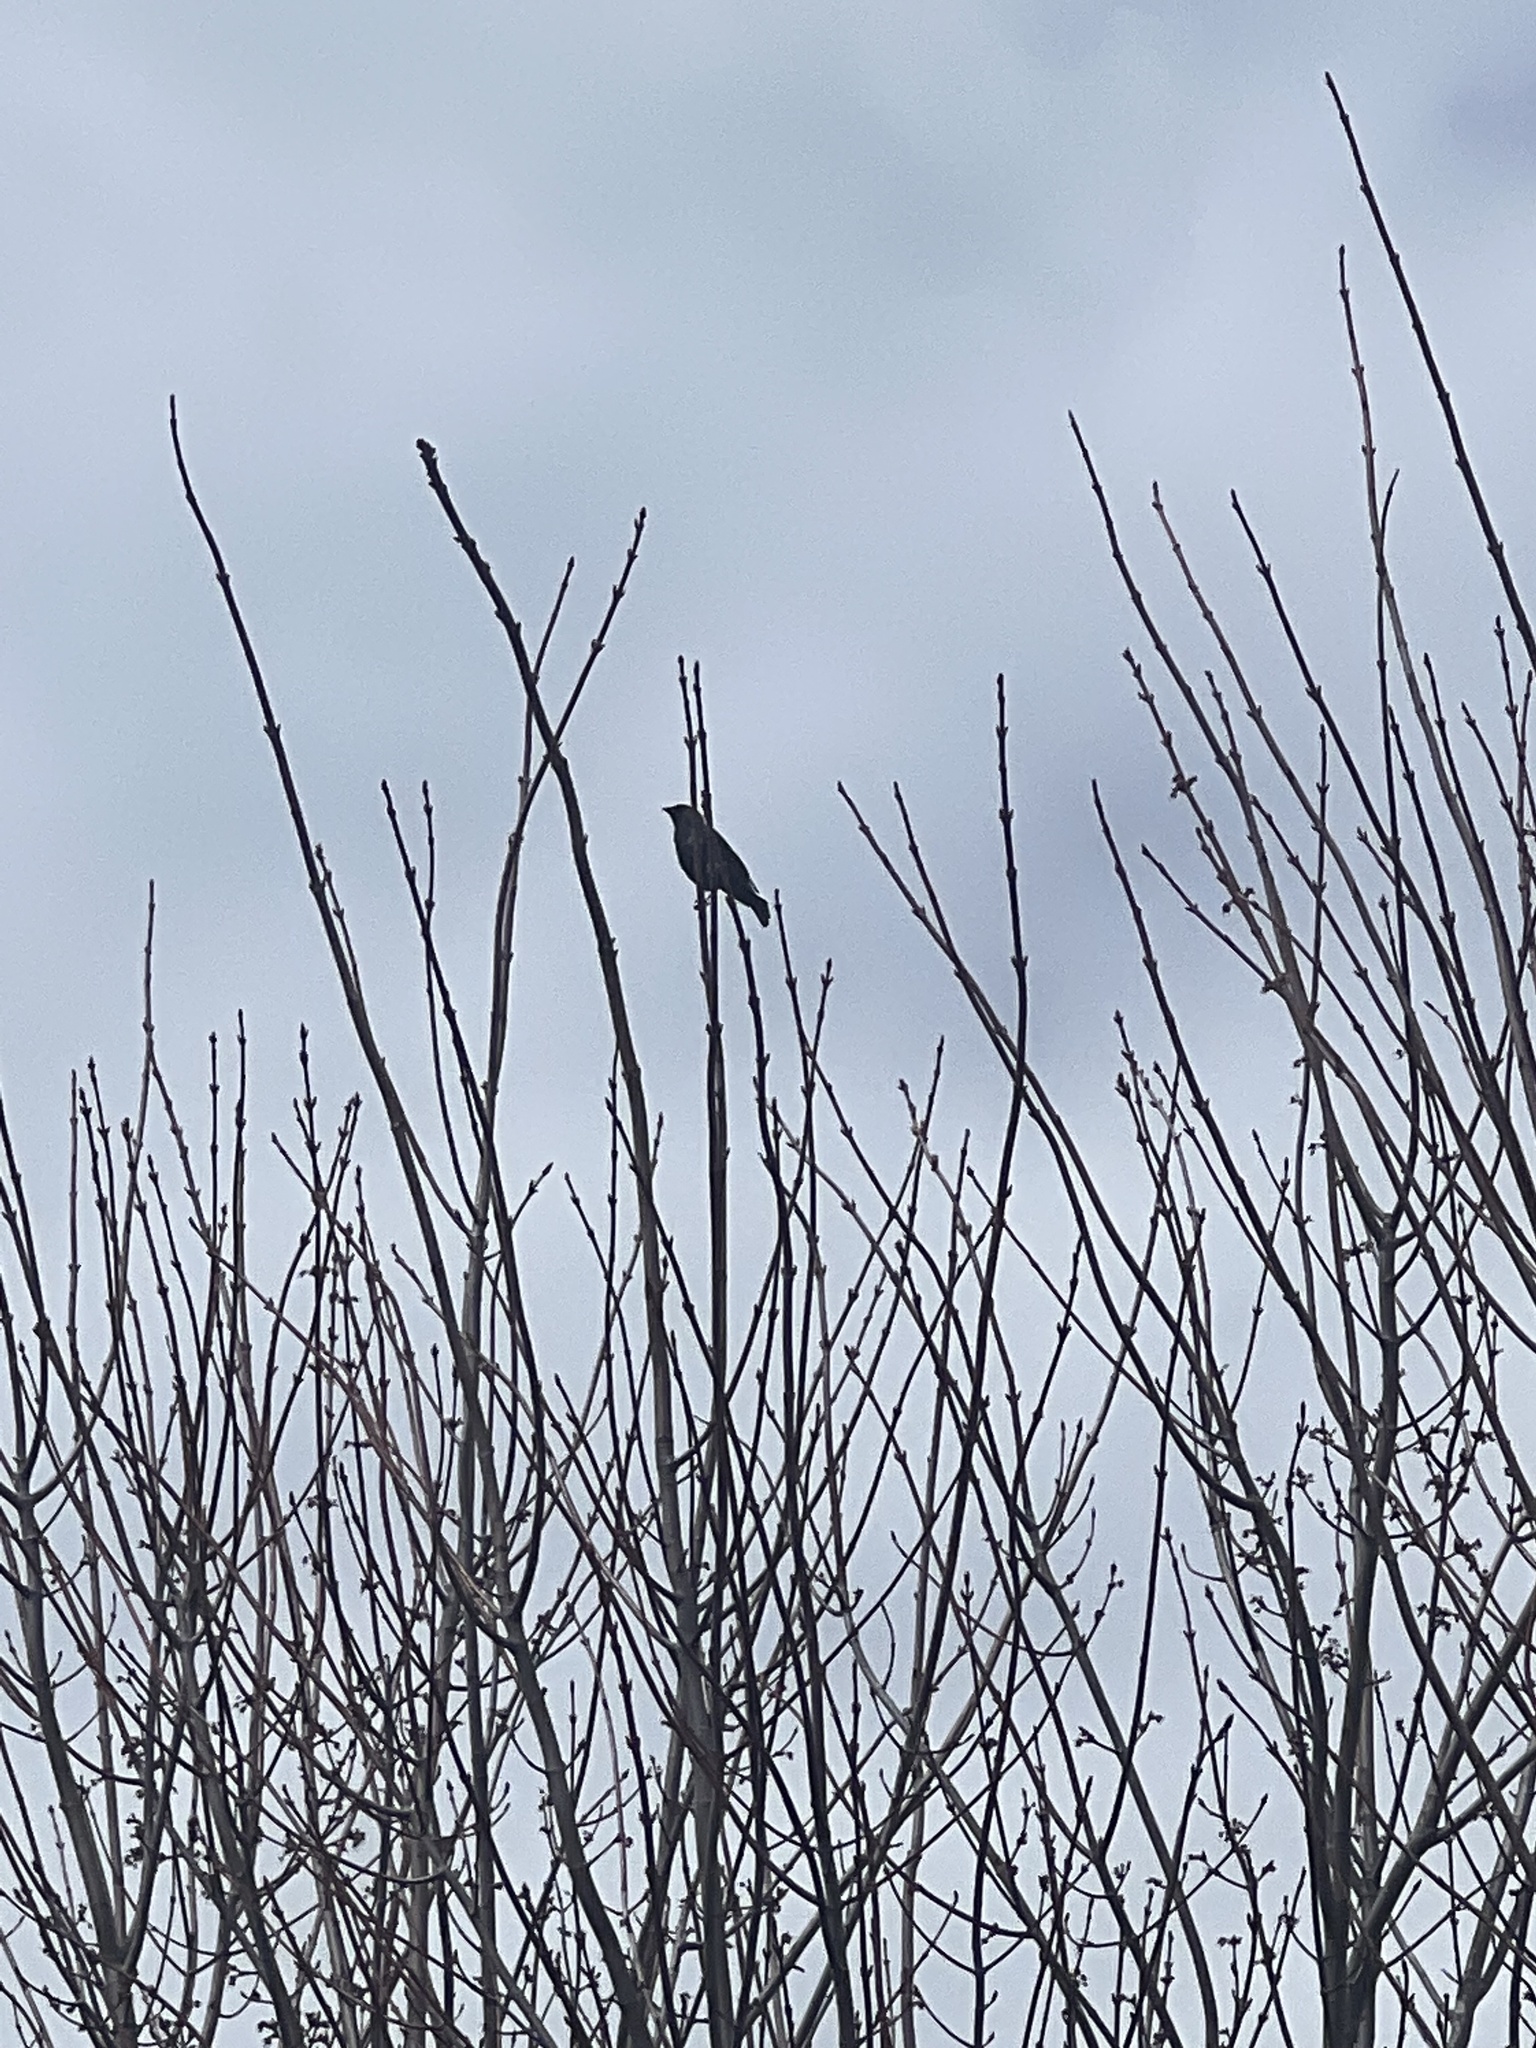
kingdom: Animalia
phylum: Chordata
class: Aves
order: Passeriformes
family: Icteridae
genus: Molothrus
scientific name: Molothrus ater
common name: Brown-headed cowbird
